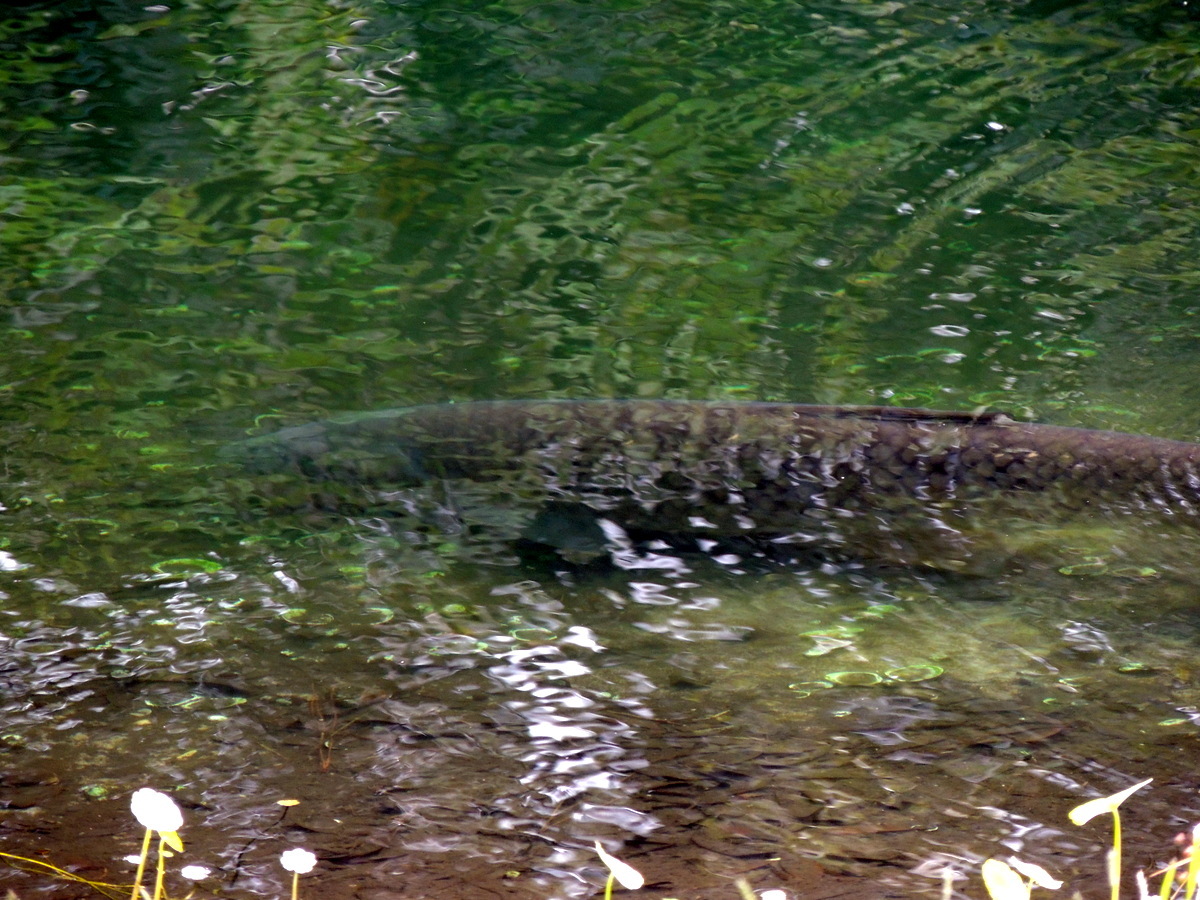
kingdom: Animalia
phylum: Chordata
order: Cypriniformes
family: Cyprinidae
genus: Ctenopharyngodon
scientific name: Ctenopharyngodon idella
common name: Grass carp
